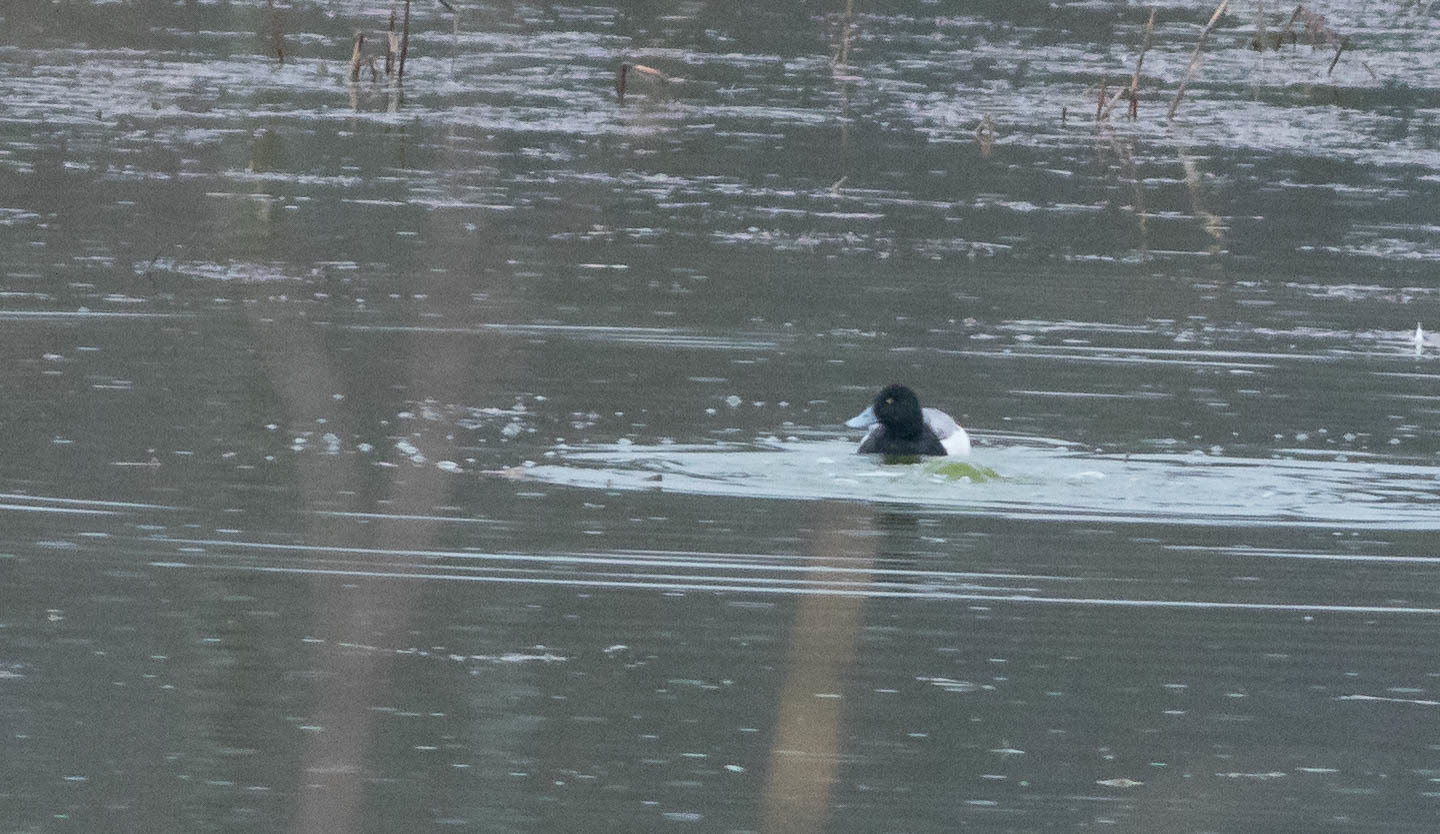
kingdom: Animalia
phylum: Chordata
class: Aves
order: Anseriformes
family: Anatidae
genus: Aythya
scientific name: Aythya marila
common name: Greater scaup
